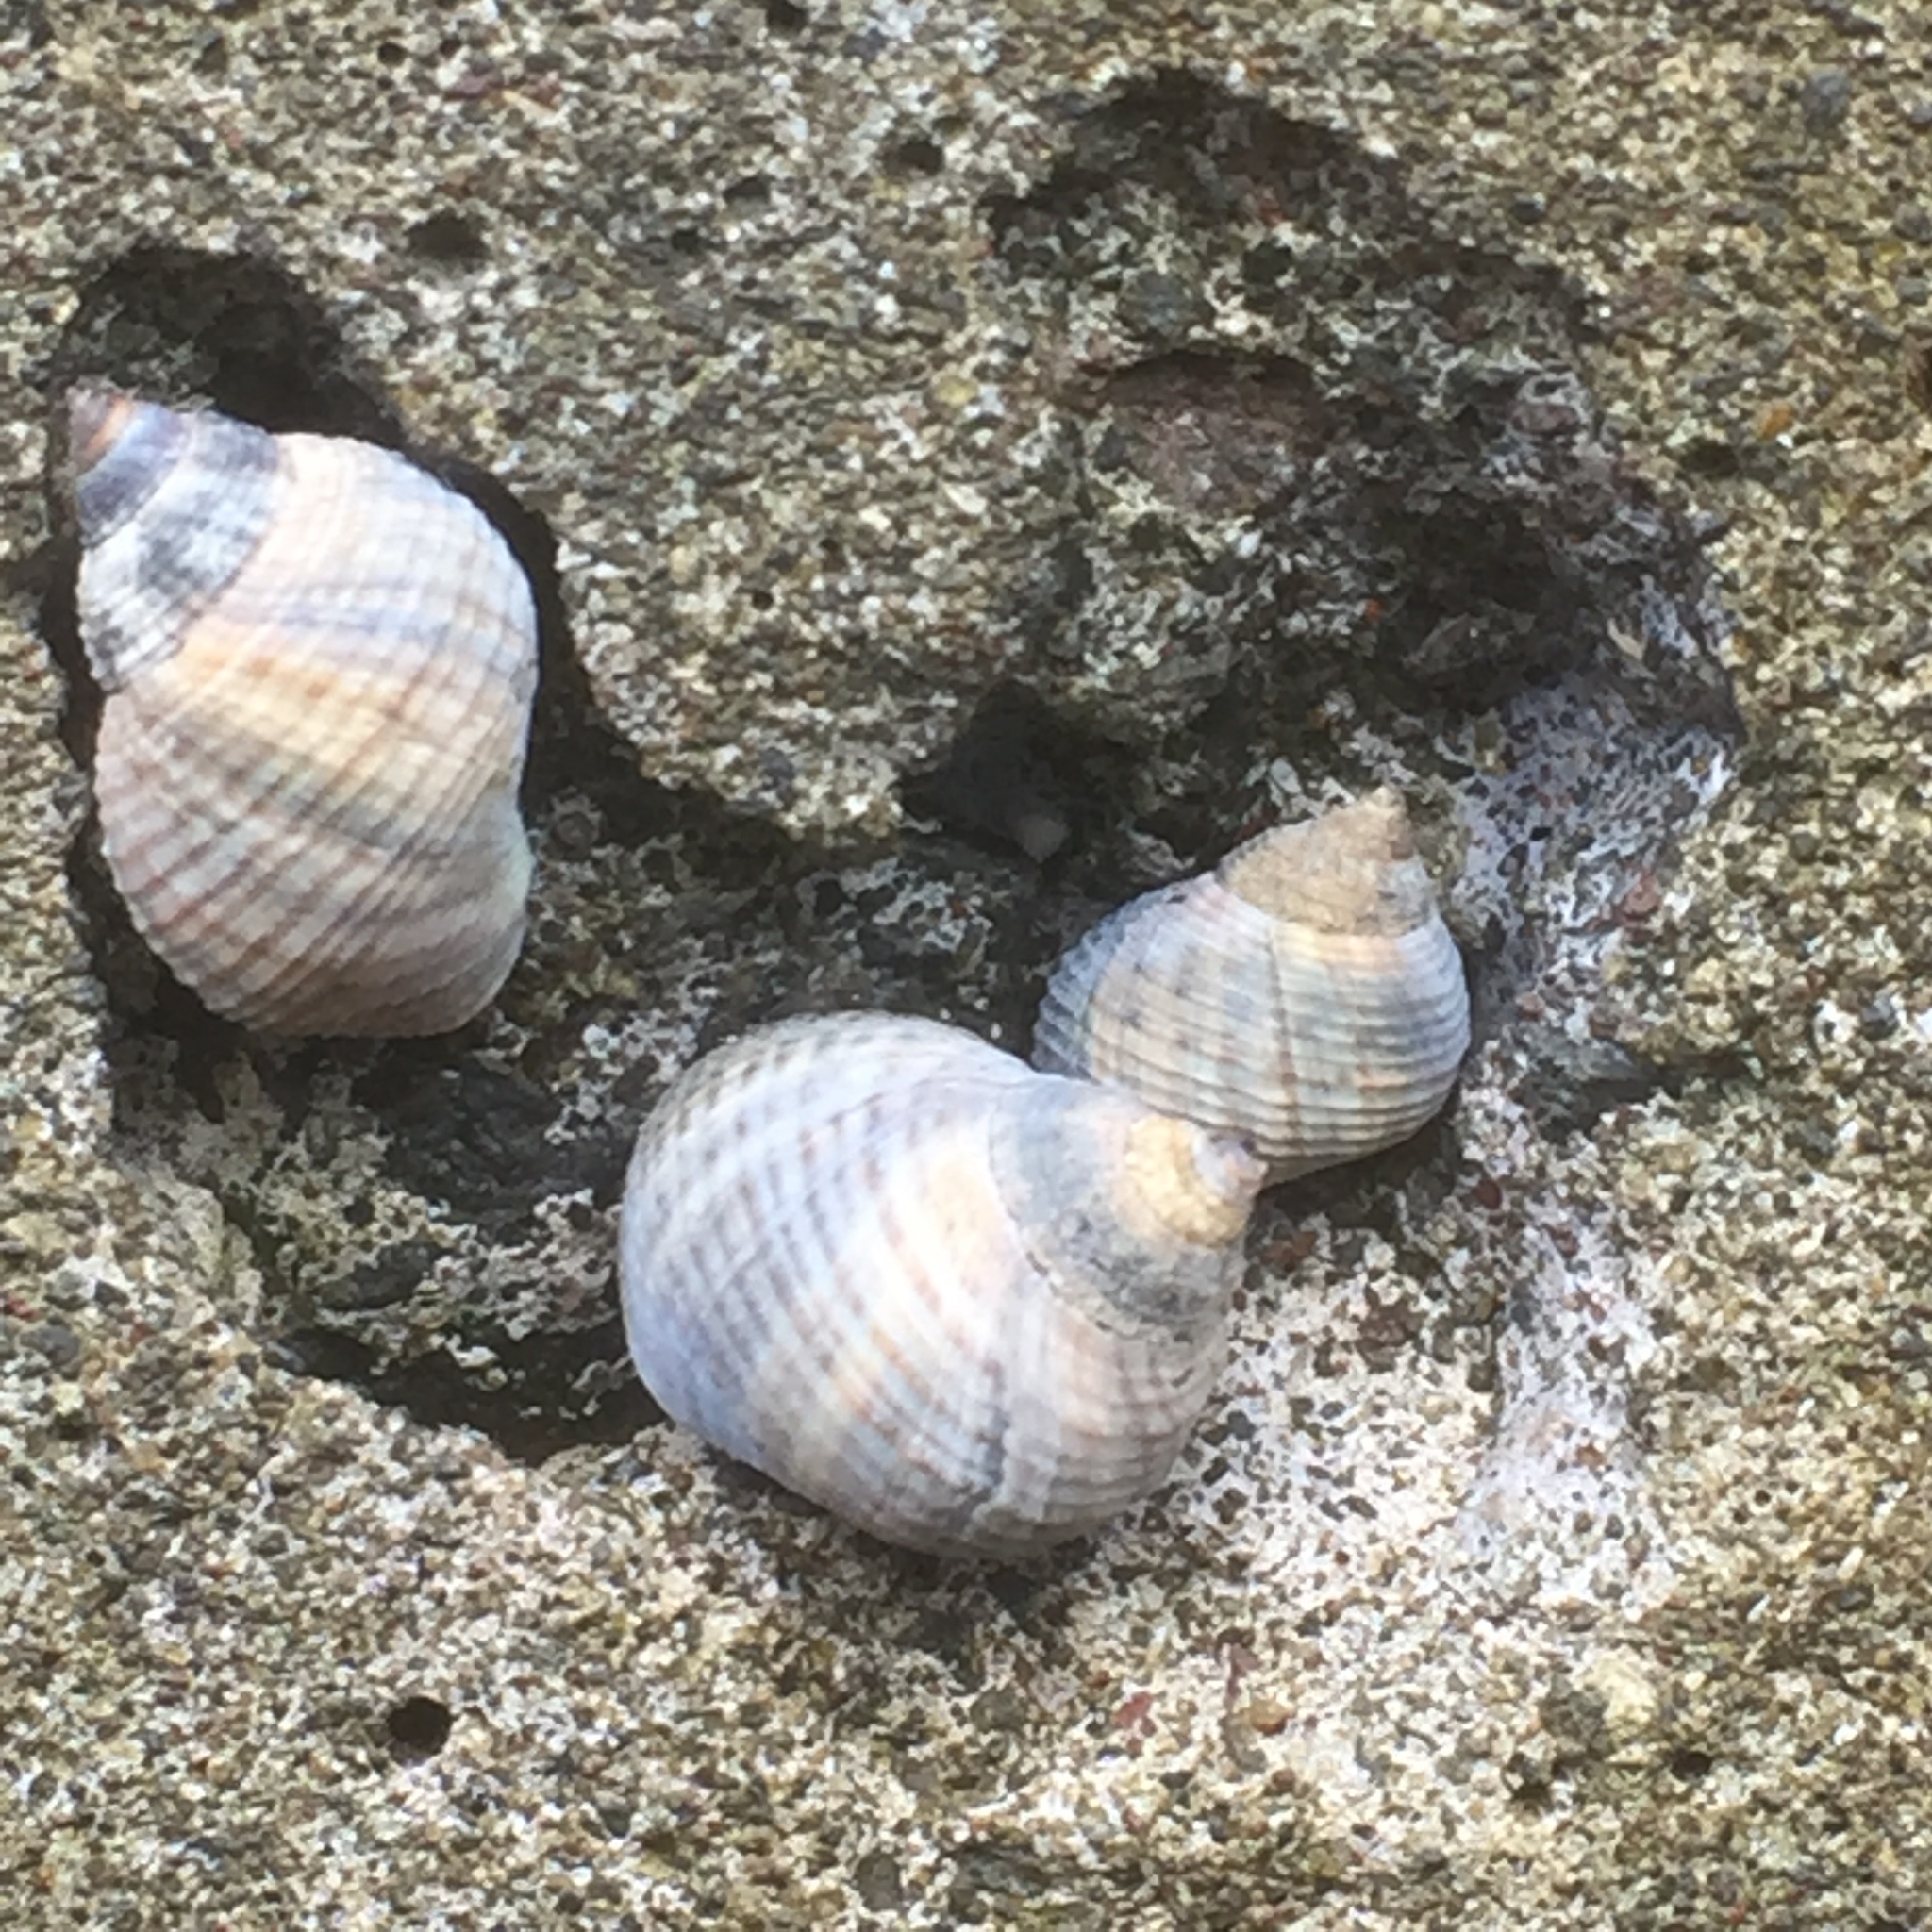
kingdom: Animalia
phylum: Mollusca
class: Gastropoda
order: Littorinimorpha
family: Littorinidae
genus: Tectarius
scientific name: Tectarius striatus
